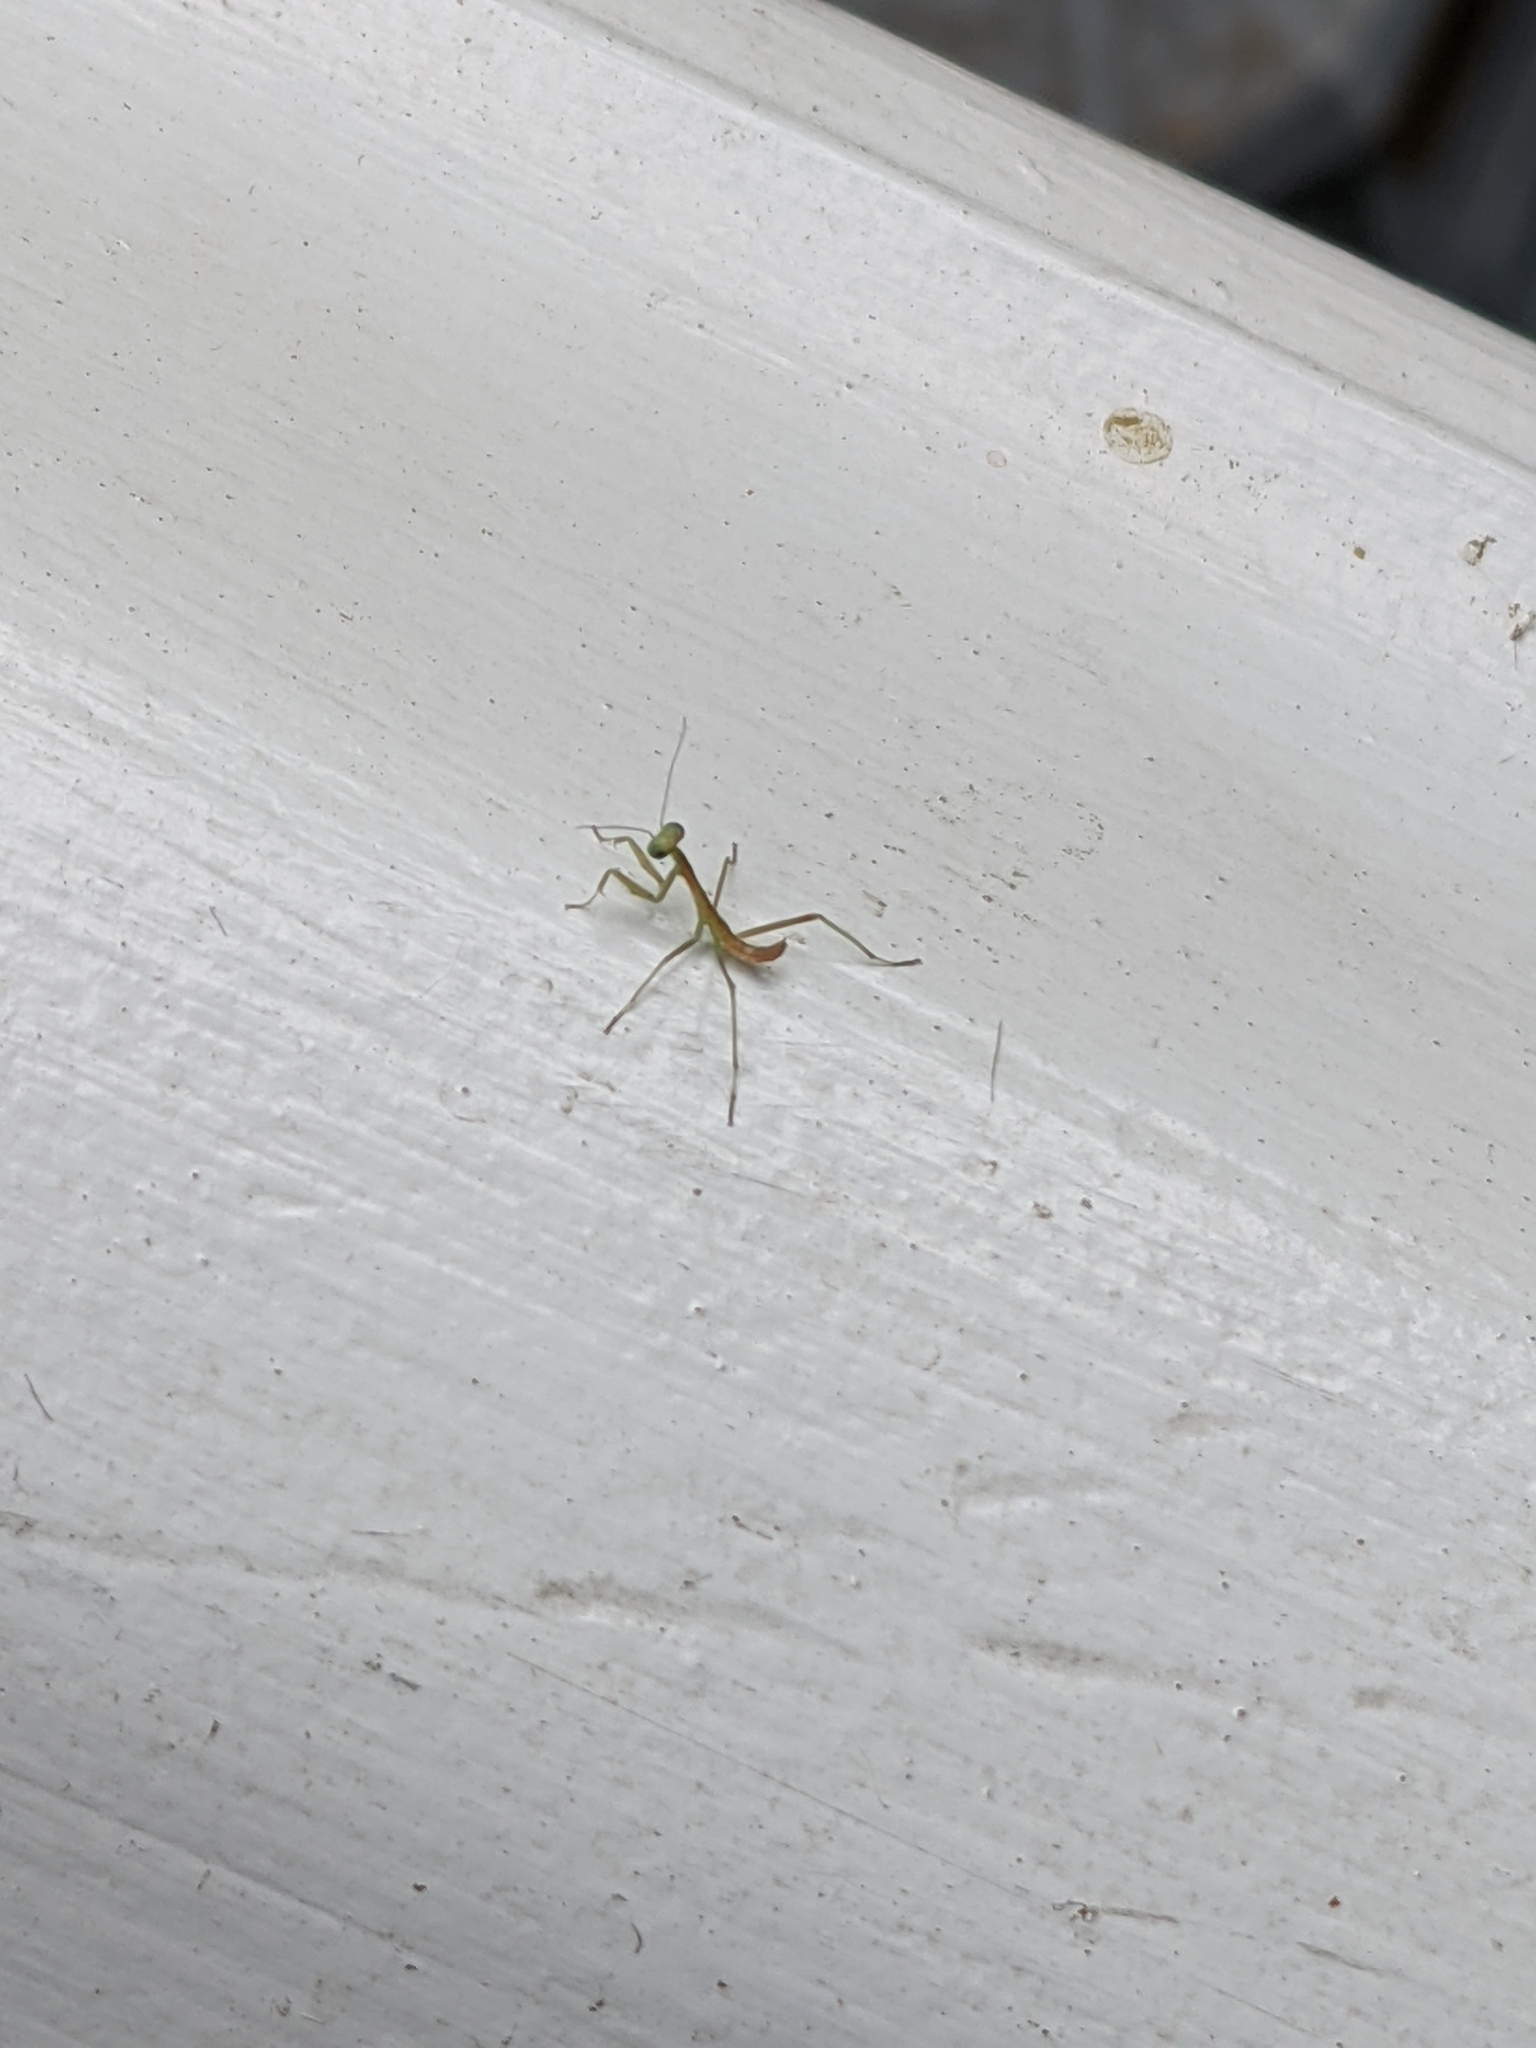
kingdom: Animalia
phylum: Arthropoda
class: Insecta
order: Mantodea
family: Mantidae
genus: Stagmomantis
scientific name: Stagmomantis limbata
